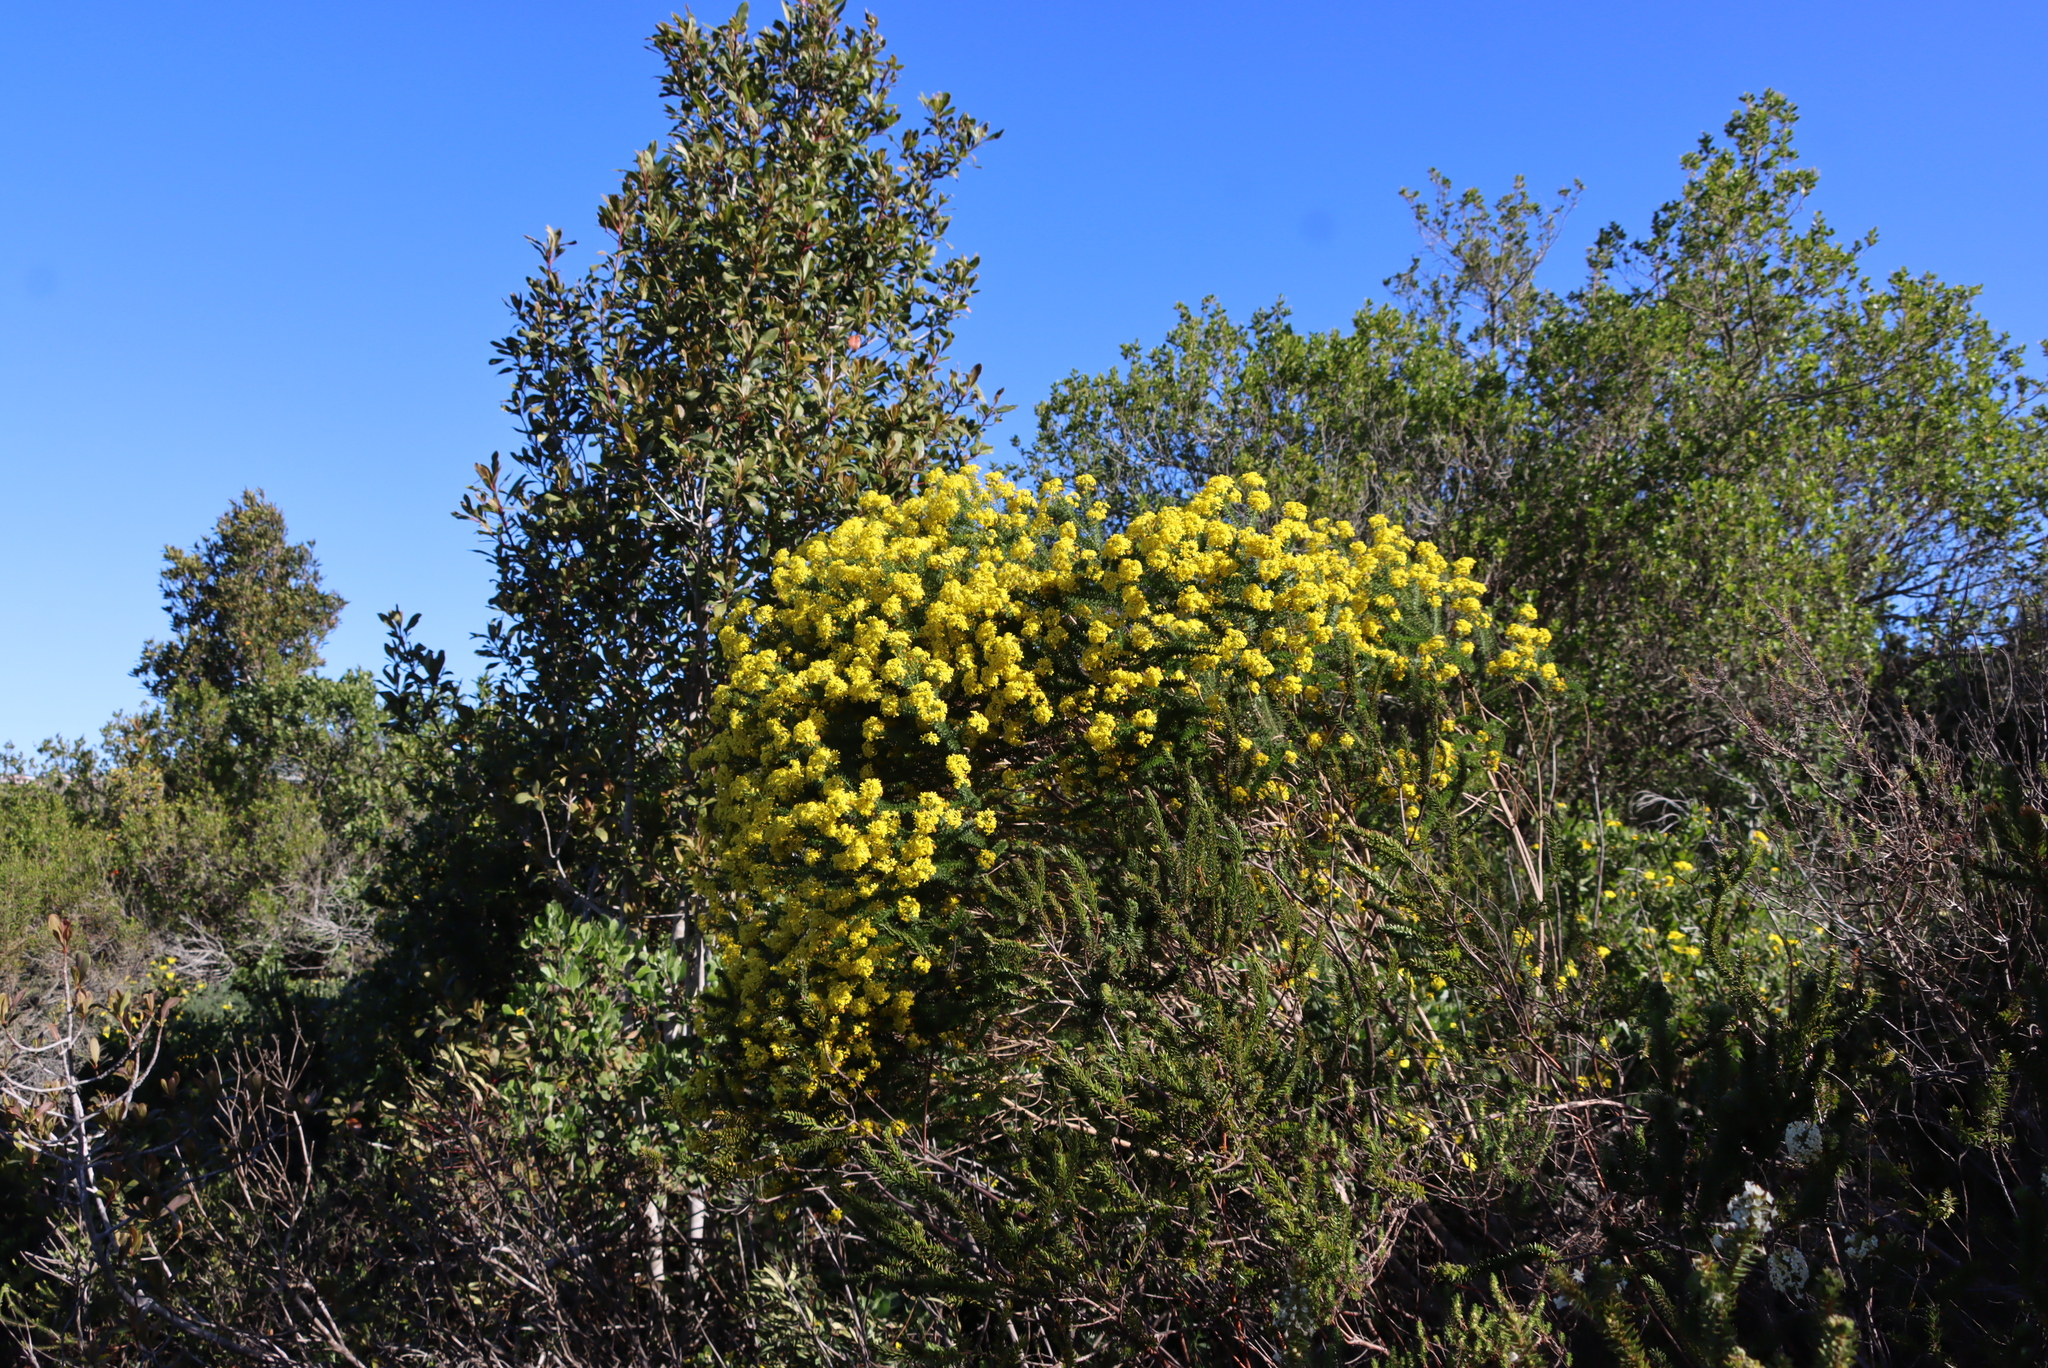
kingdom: Plantae
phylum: Tracheophyta
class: Magnoliopsida
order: Asterales
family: Asteraceae
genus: Euryops
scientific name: Euryops virgineus
